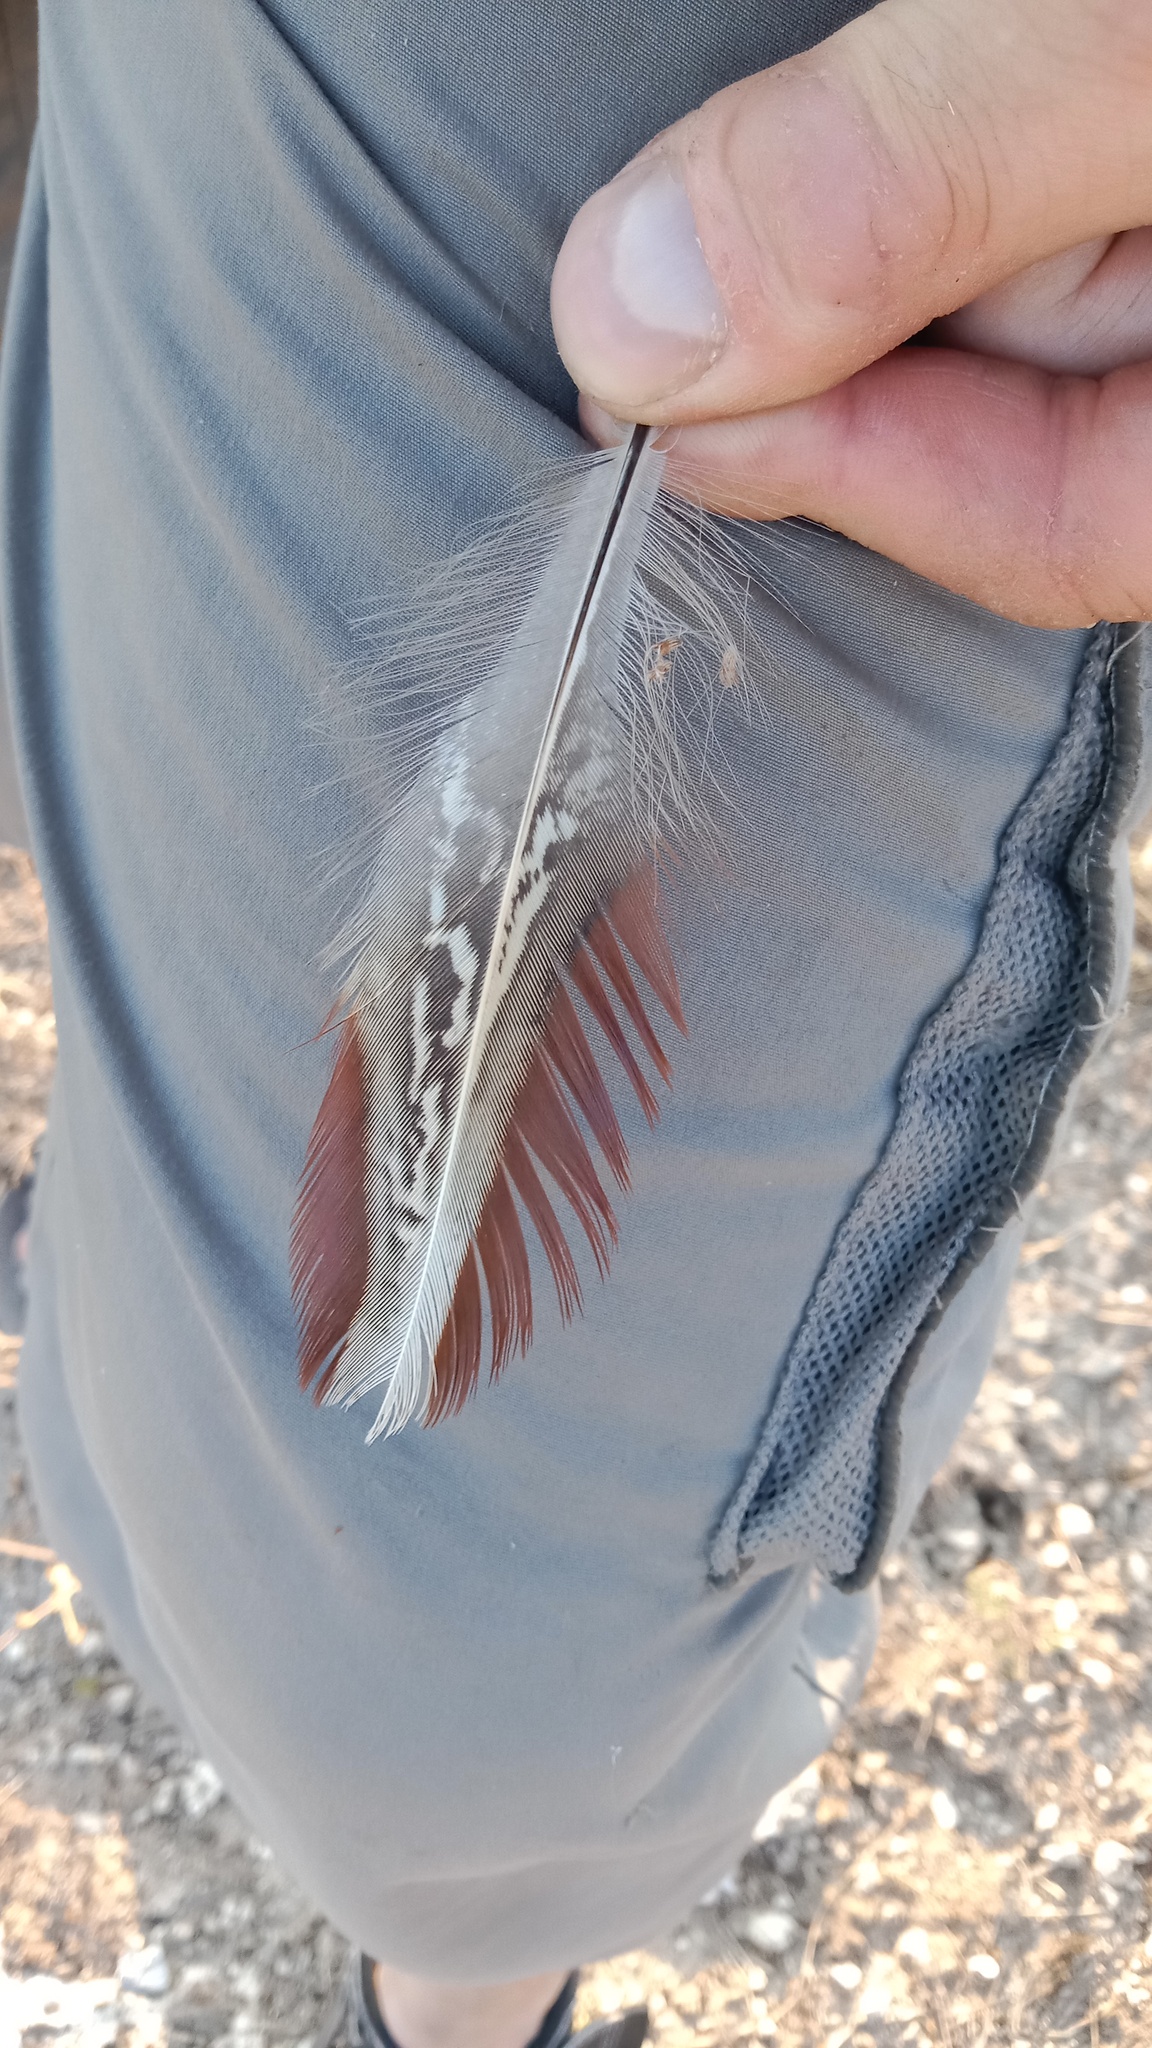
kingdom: Animalia
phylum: Chordata
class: Aves
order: Galliformes
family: Phasianidae
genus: Phasianus
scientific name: Phasianus colchicus
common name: Common pheasant
